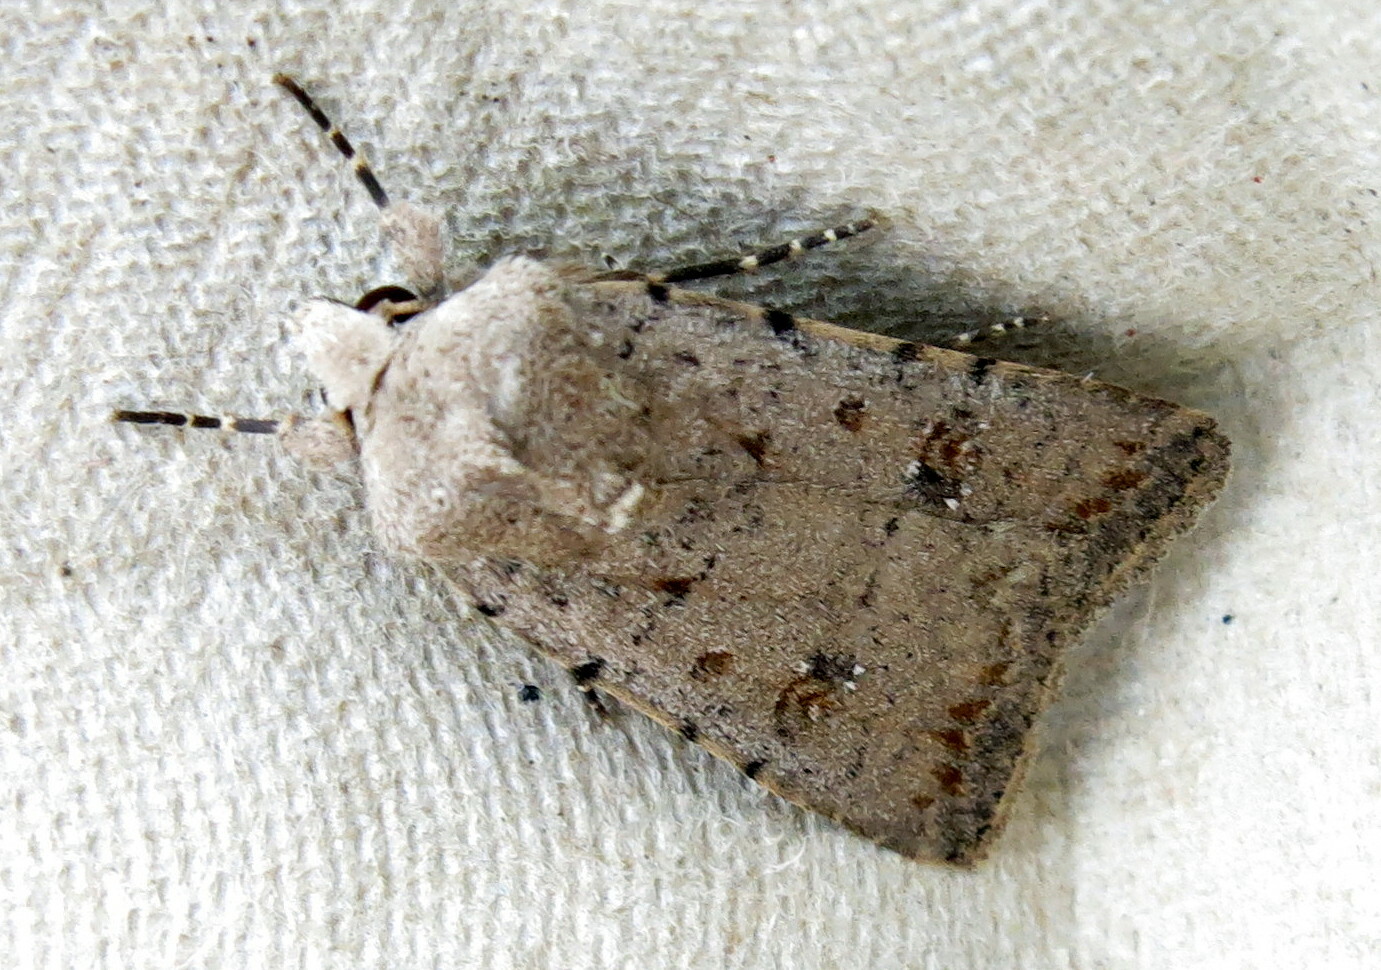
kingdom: Animalia
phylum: Arthropoda
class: Insecta
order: Lepidoptera
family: Noctuidae
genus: Caradrina
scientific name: Caradrina clavipalpis
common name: Pale mottled willow
